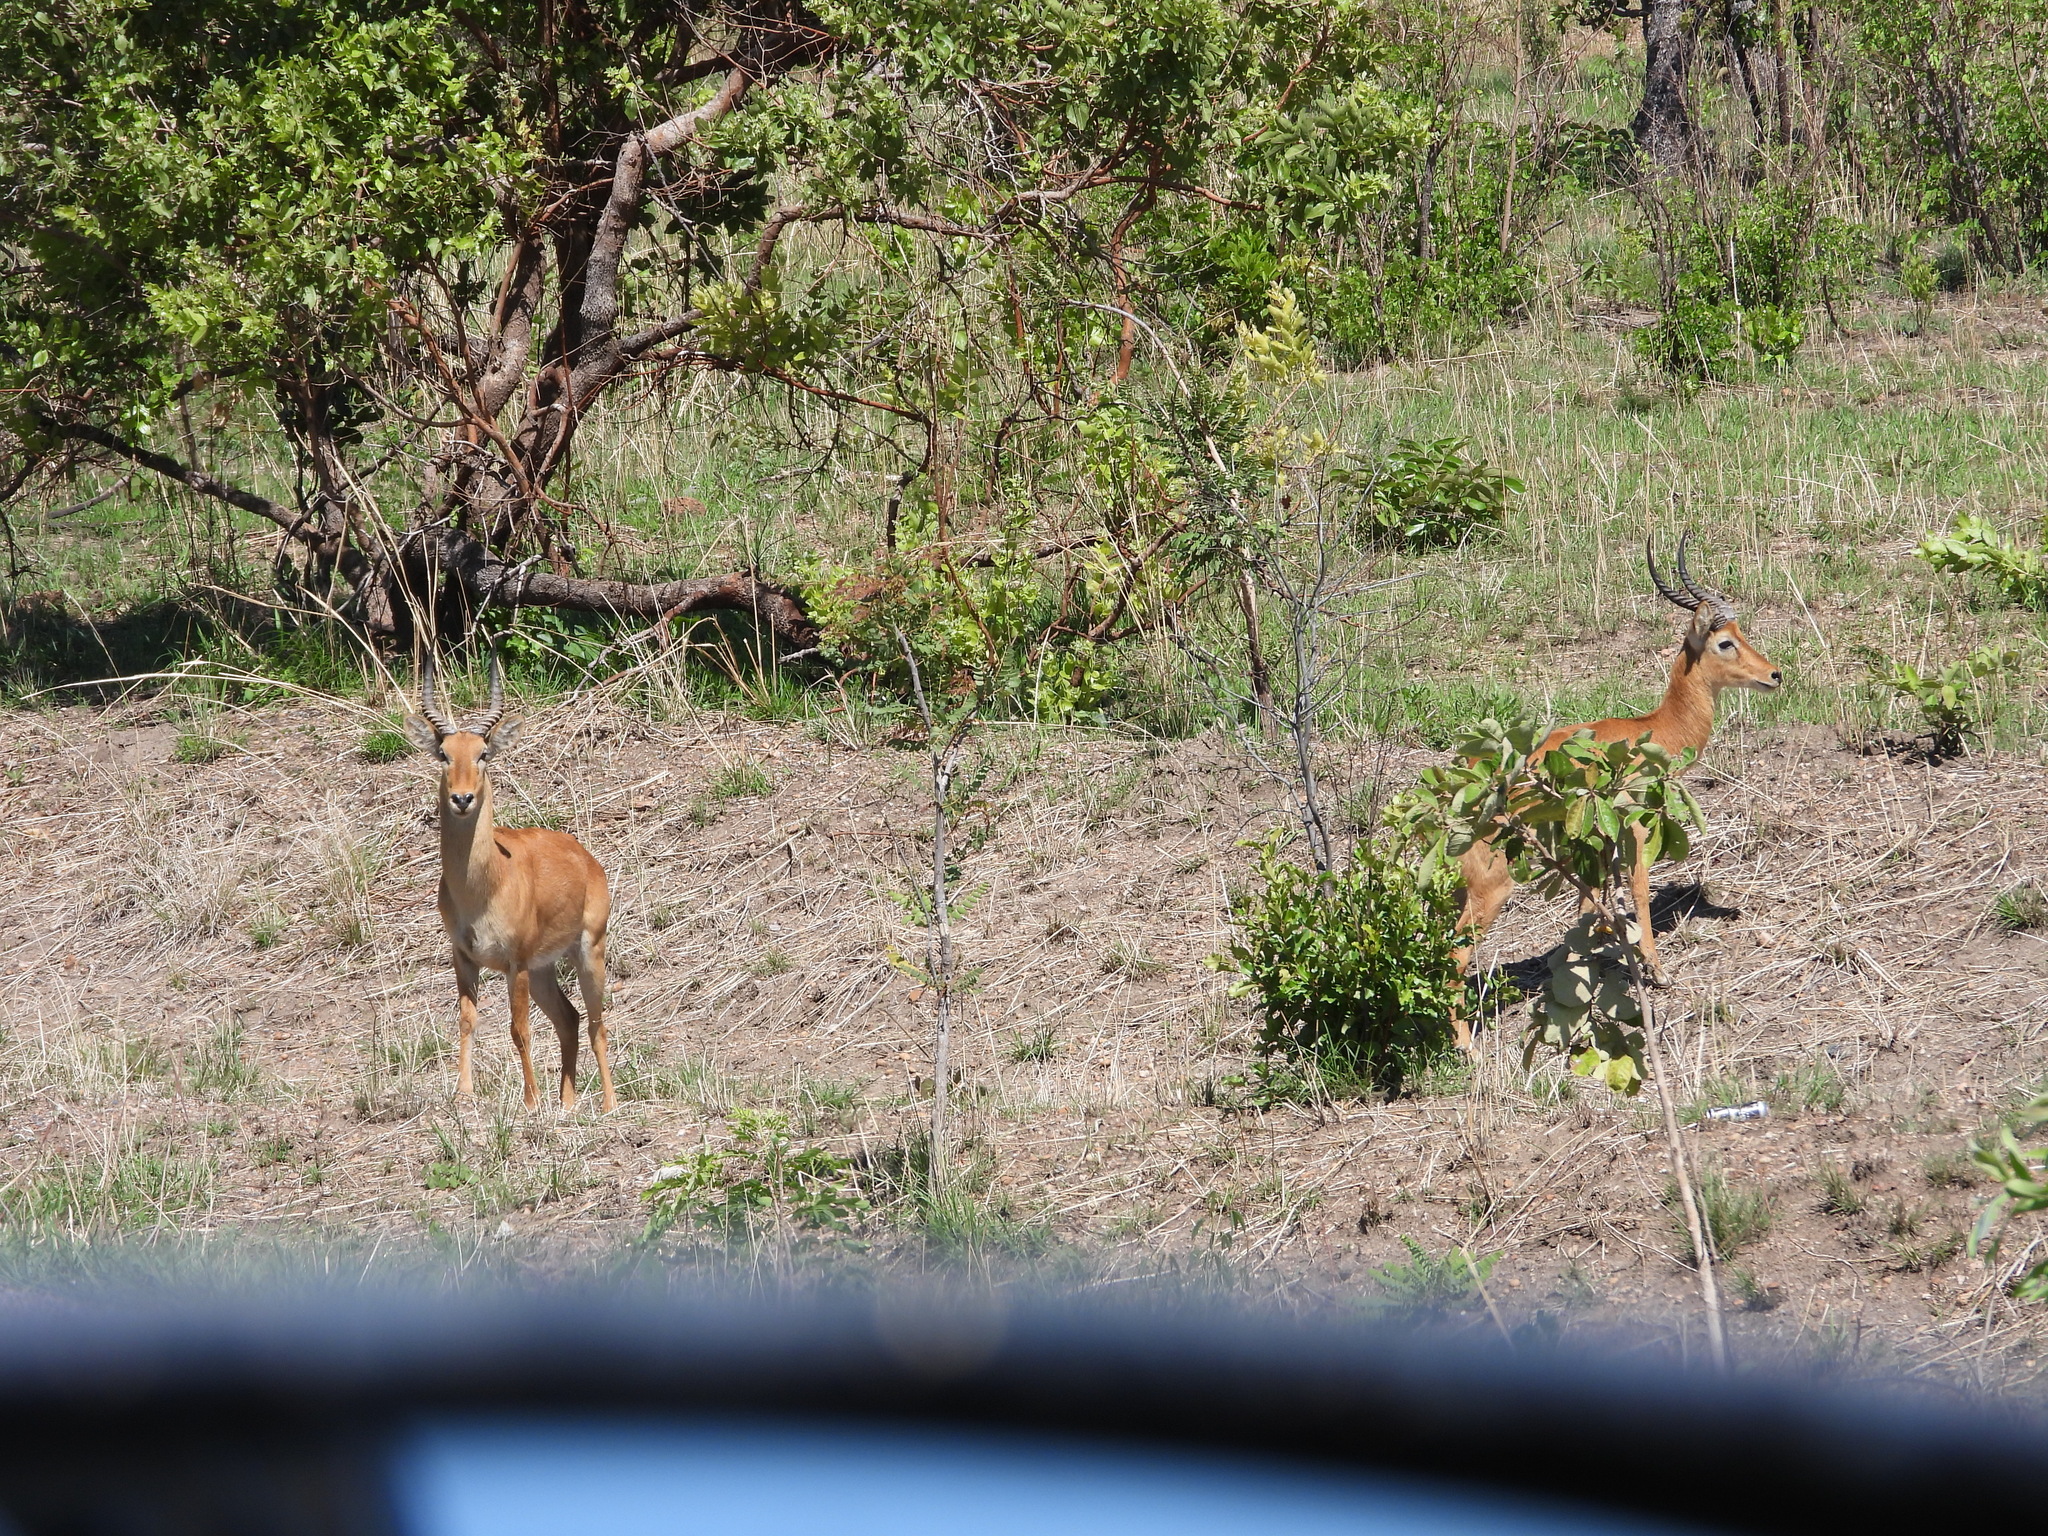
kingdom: Animalia
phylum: Chordata
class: Mammalia
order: Artiodactyla
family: Bovidae
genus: Kobus
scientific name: Kobus vardonii
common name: Puku
